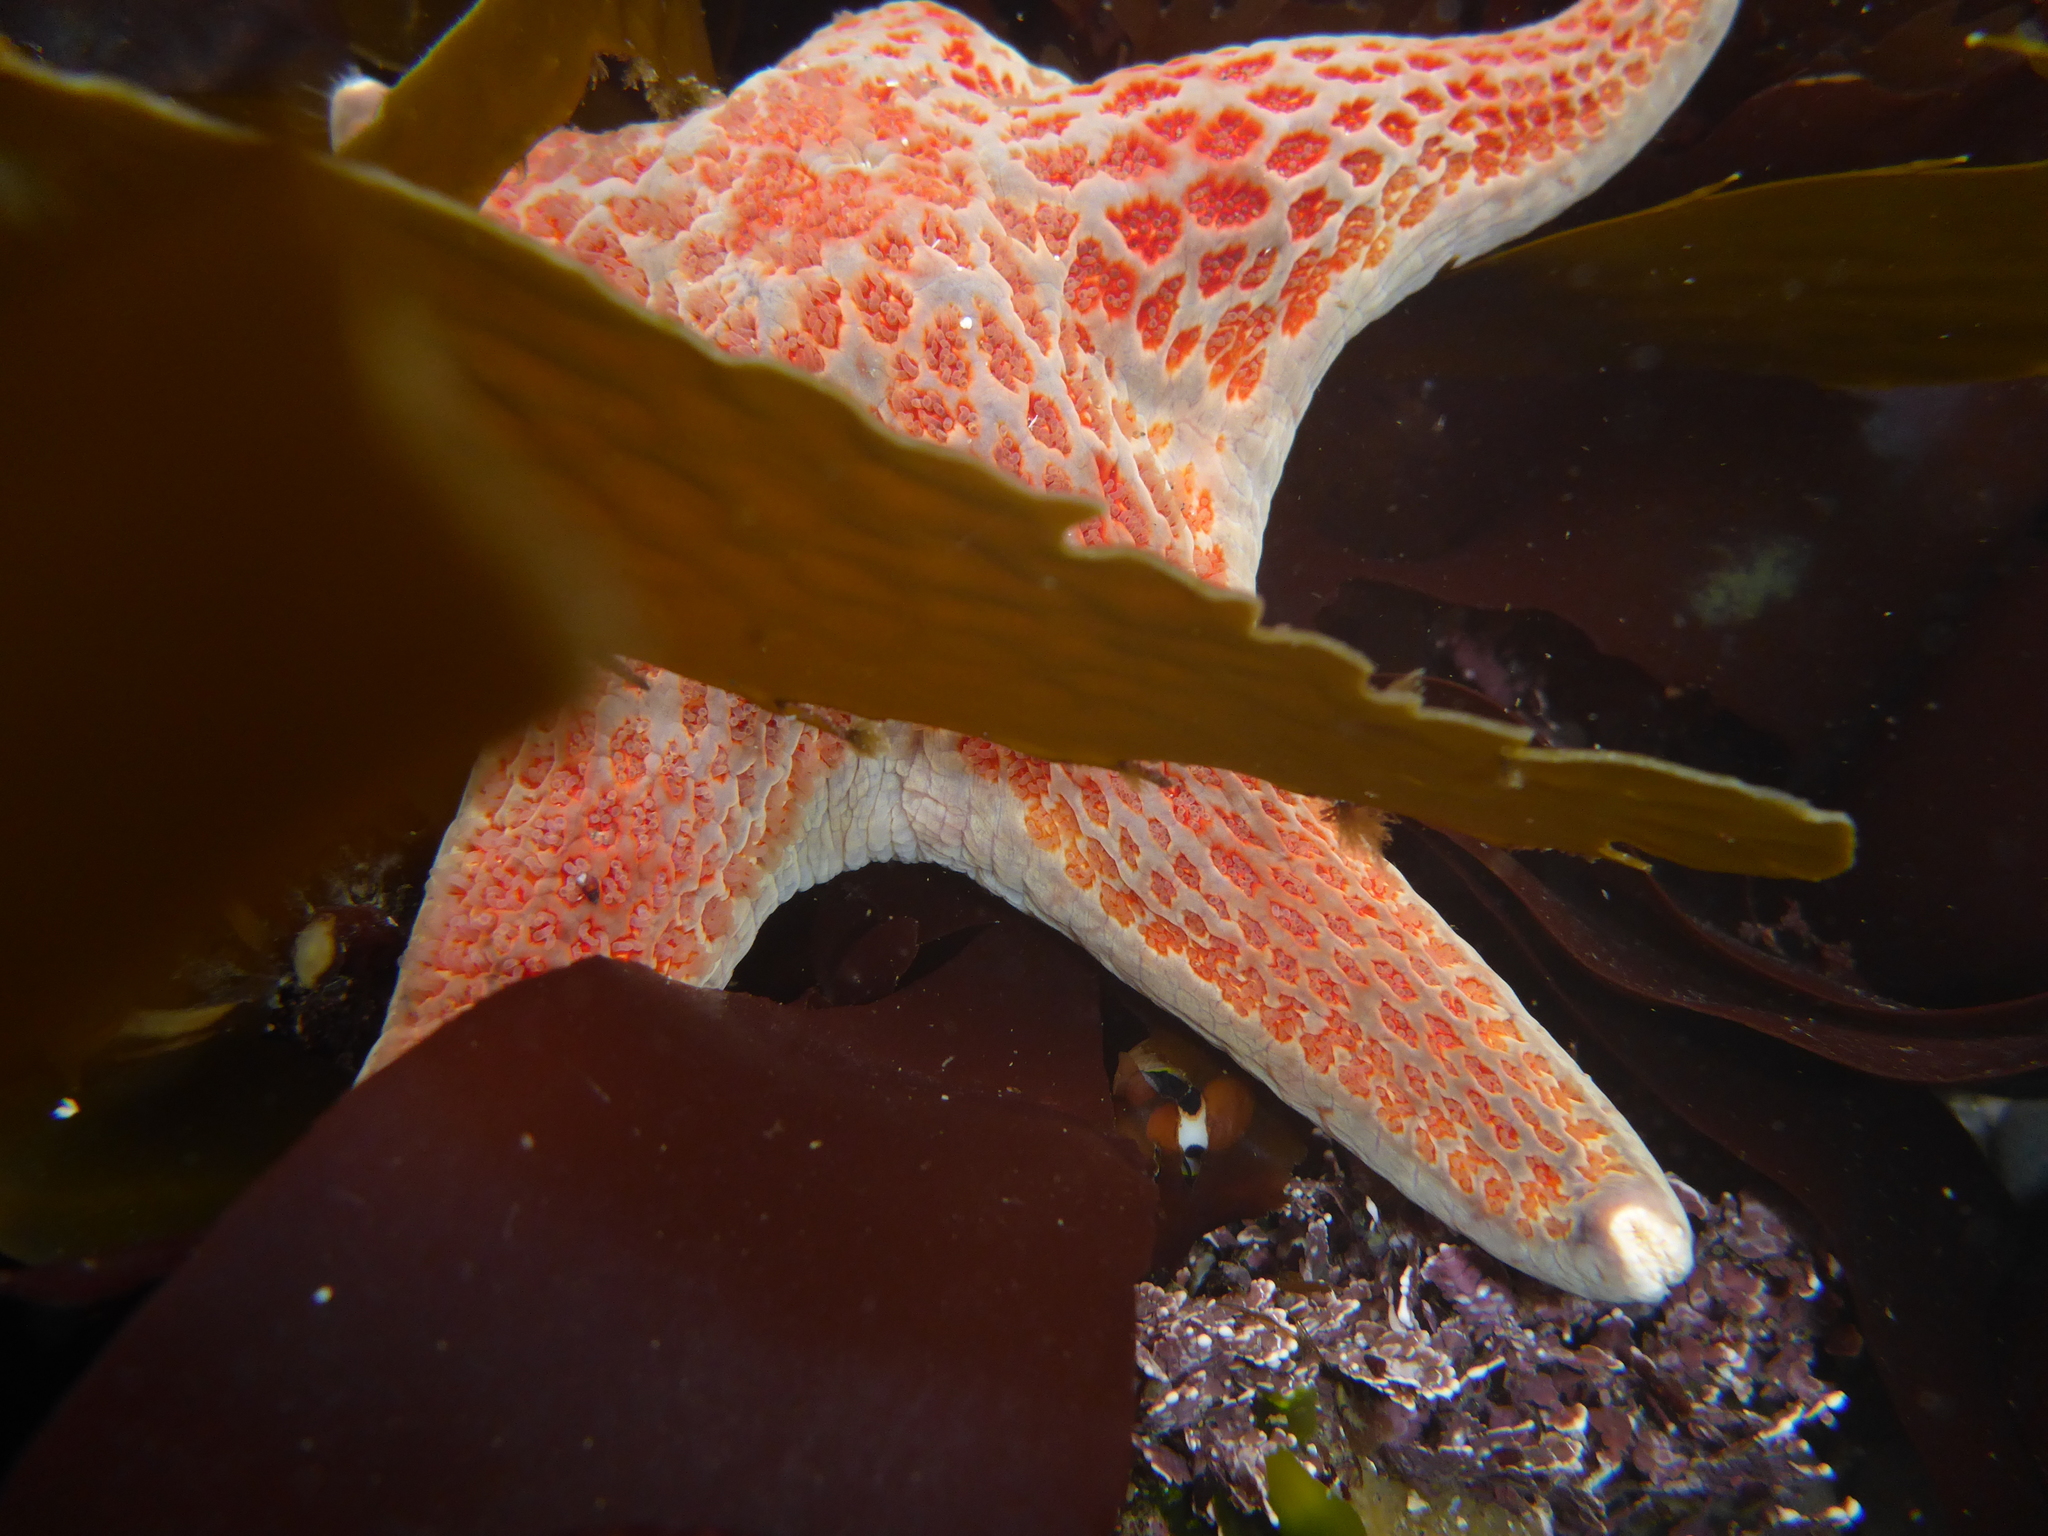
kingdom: Animalia
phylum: Echinodermata
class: Asteroidea
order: Valvatida
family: Asteropseidae
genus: Dermasterias
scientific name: Dermasterias imbricata
